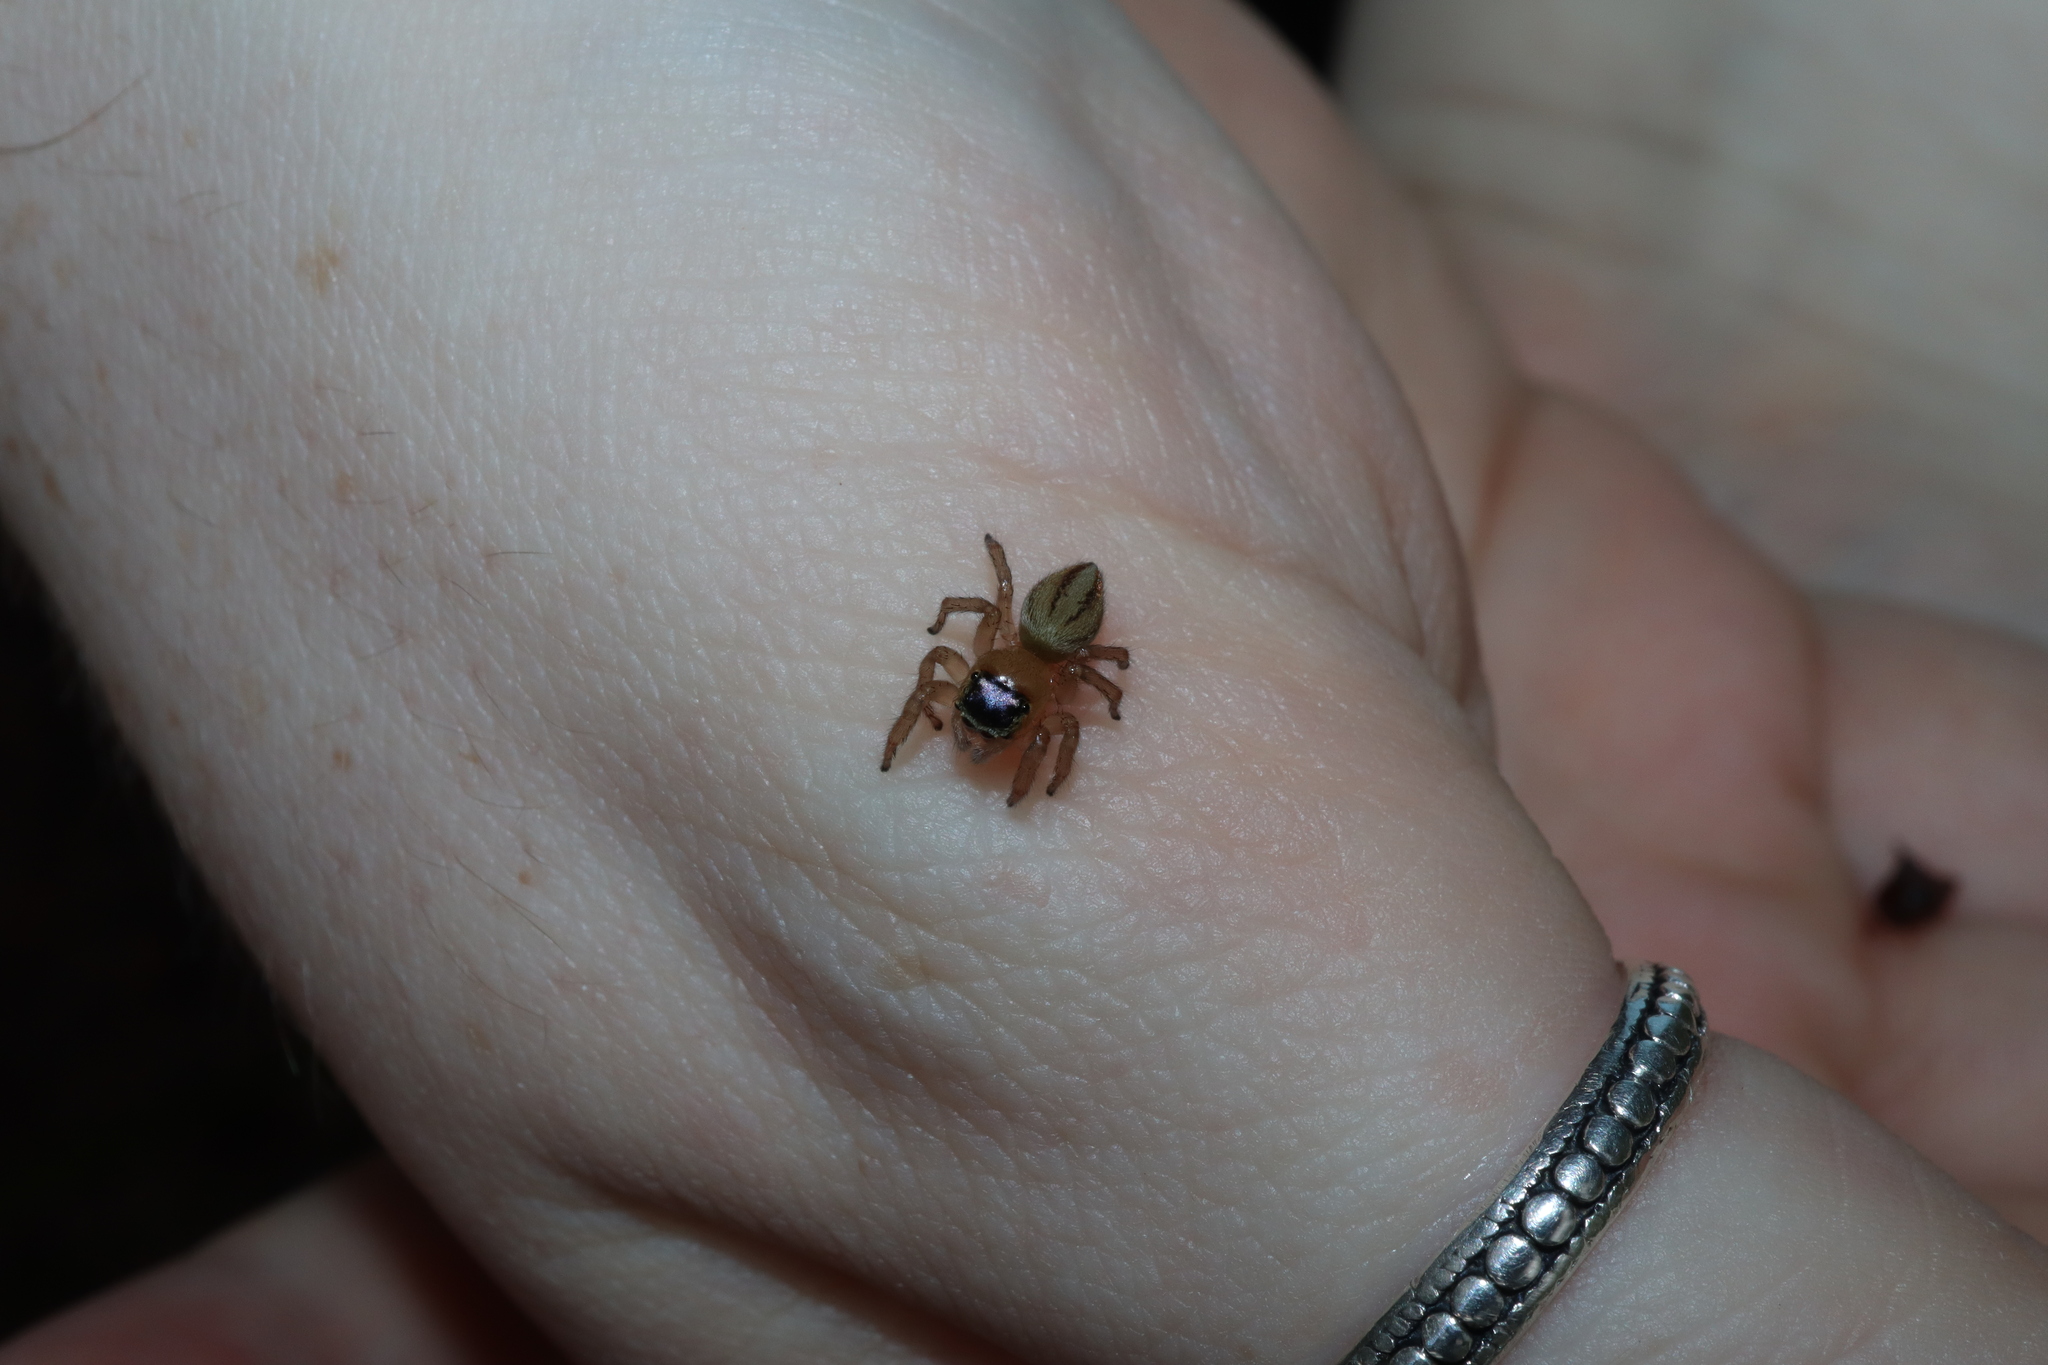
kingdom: Animalia
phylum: Arthropoda
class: Arachnida
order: Araneae
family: Salticidae
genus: Maratus
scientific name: Maratus scutulatus
